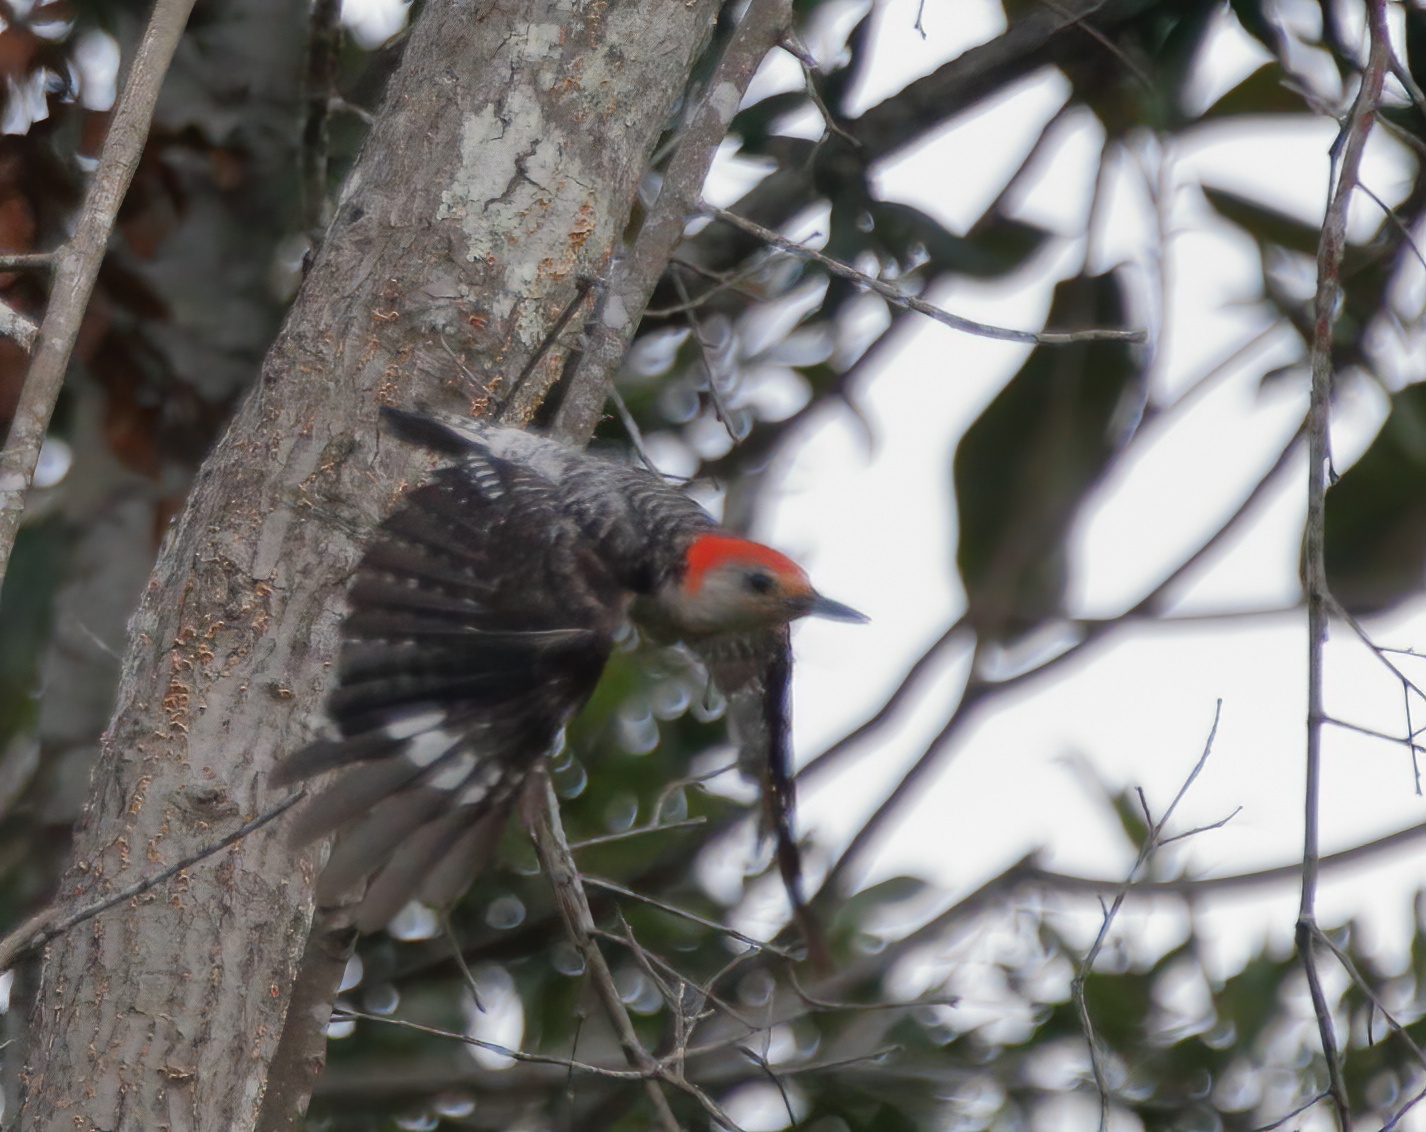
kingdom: Animalia
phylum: Chordata
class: Aves
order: Piciformes
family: Picidae
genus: Melanerpes
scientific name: Melanerpes carolinus
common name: Red-bellied woodpecker
